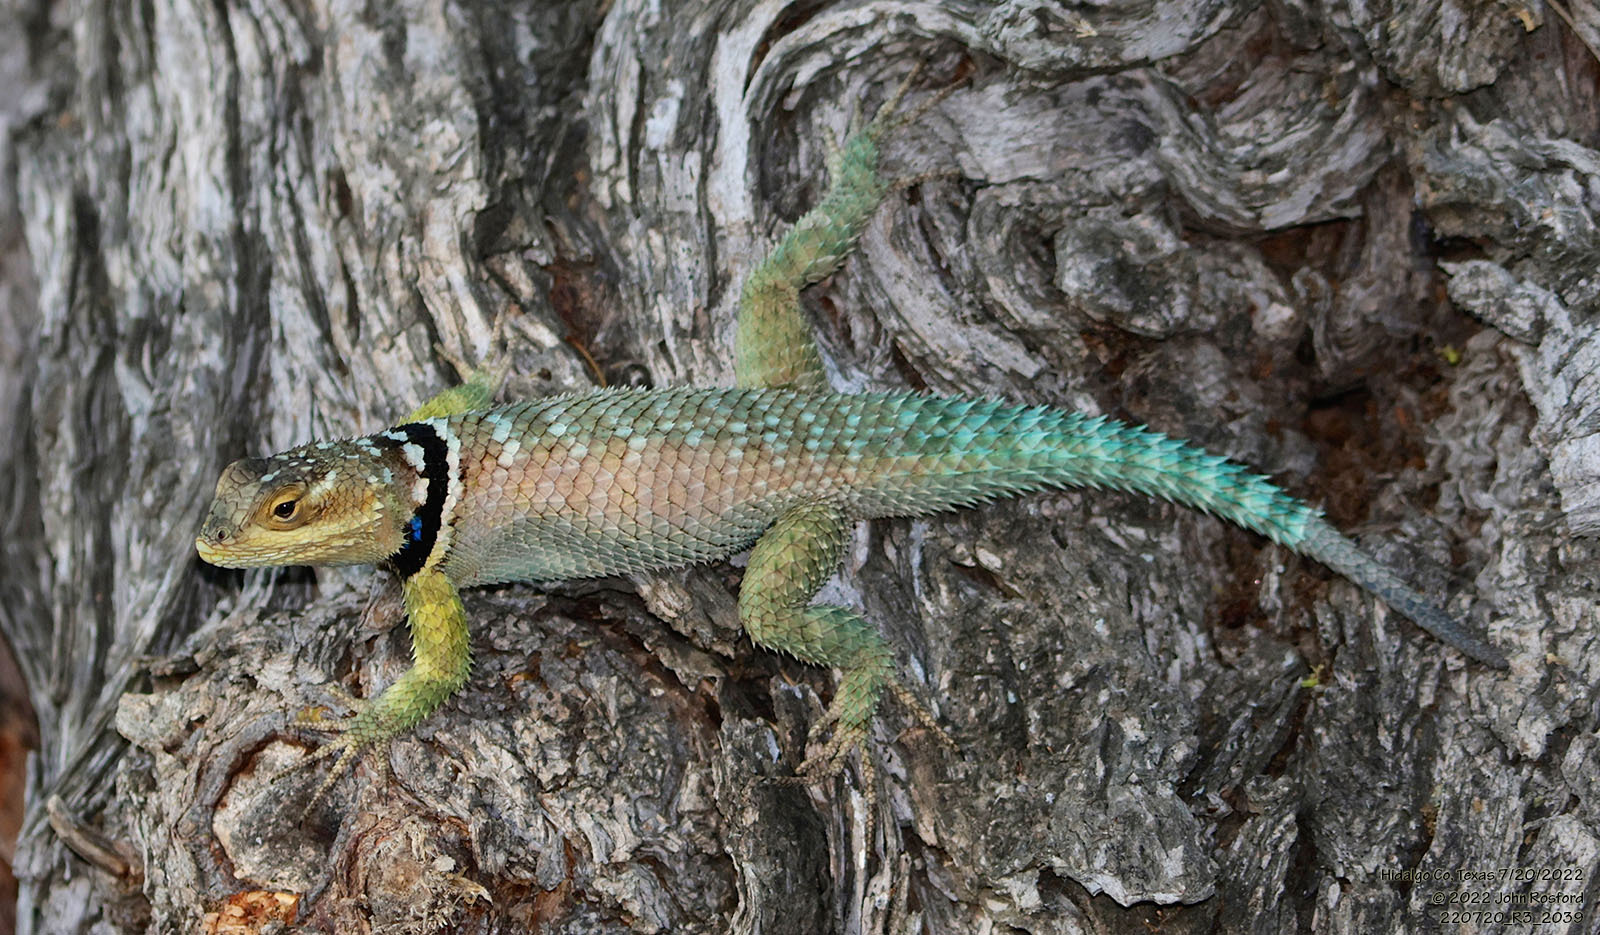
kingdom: Animalia
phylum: Chordata
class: Squamata
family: Phrynosomatidae
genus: Sceloporus
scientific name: Sceloporus cyanogenys
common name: Blue spiny lizard
